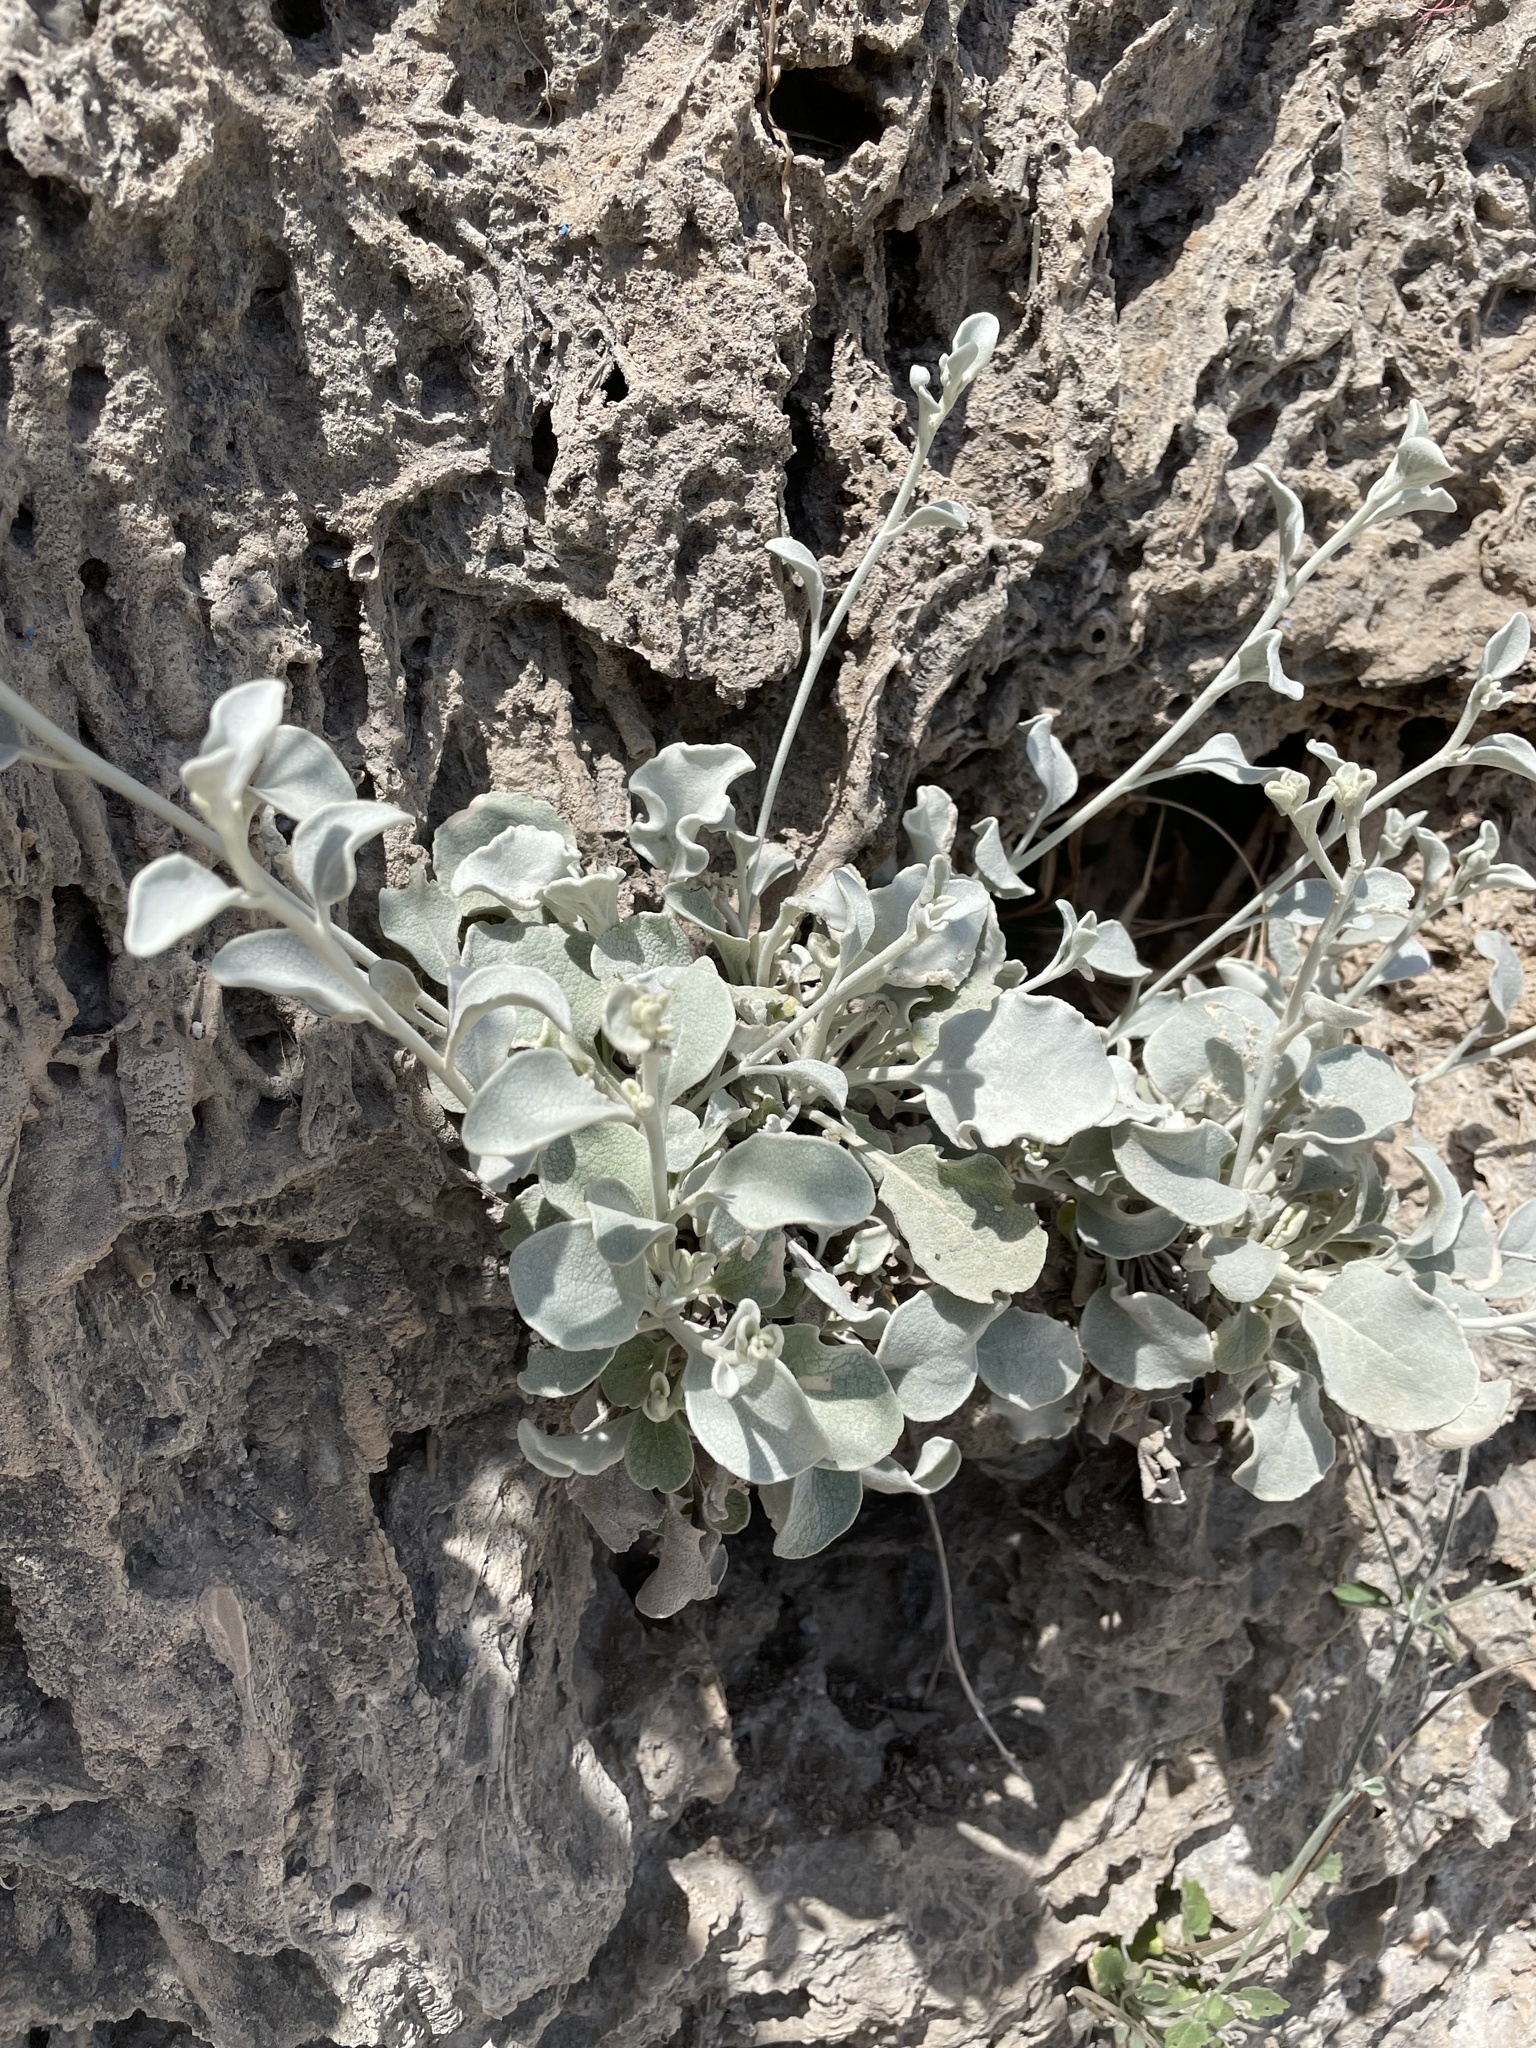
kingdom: Plantae
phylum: Tracheophyta
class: Magnoliopsida
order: Asterales
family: Asteraceae
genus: Pentanema
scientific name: Pentanema verbascifolium
